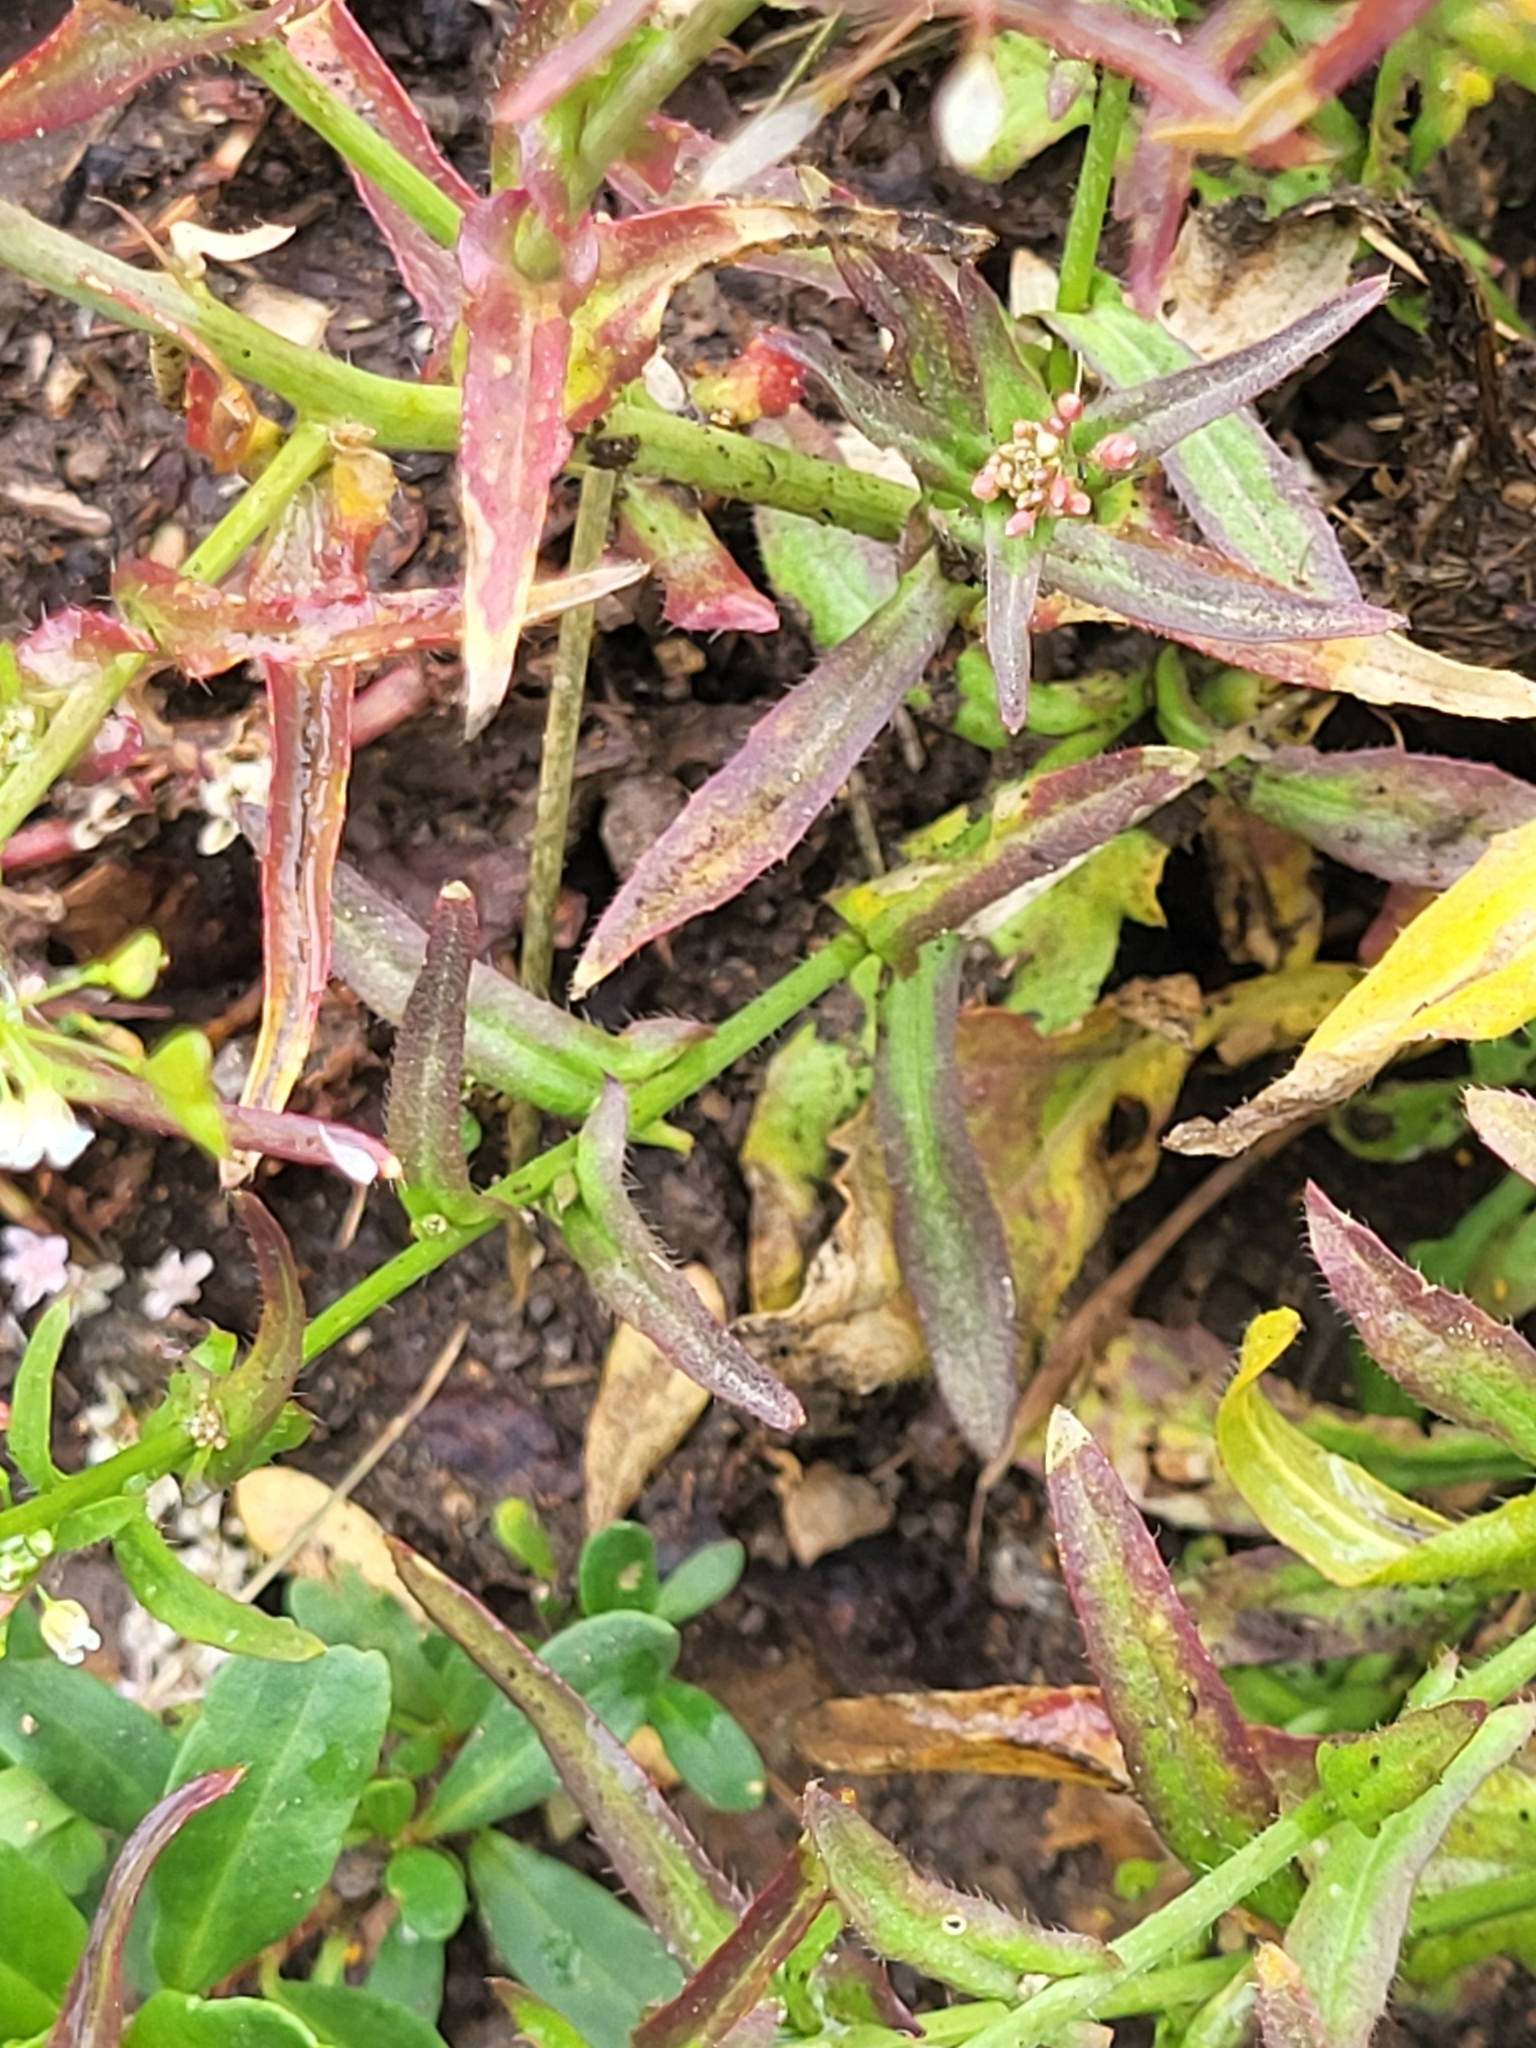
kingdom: Plantae
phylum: Tracheophyta
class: Magnoliopsida
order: Brassicales
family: Brassicaceae
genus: Capsella
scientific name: Capsella bursa-pastoris
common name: Shepherd's purse
